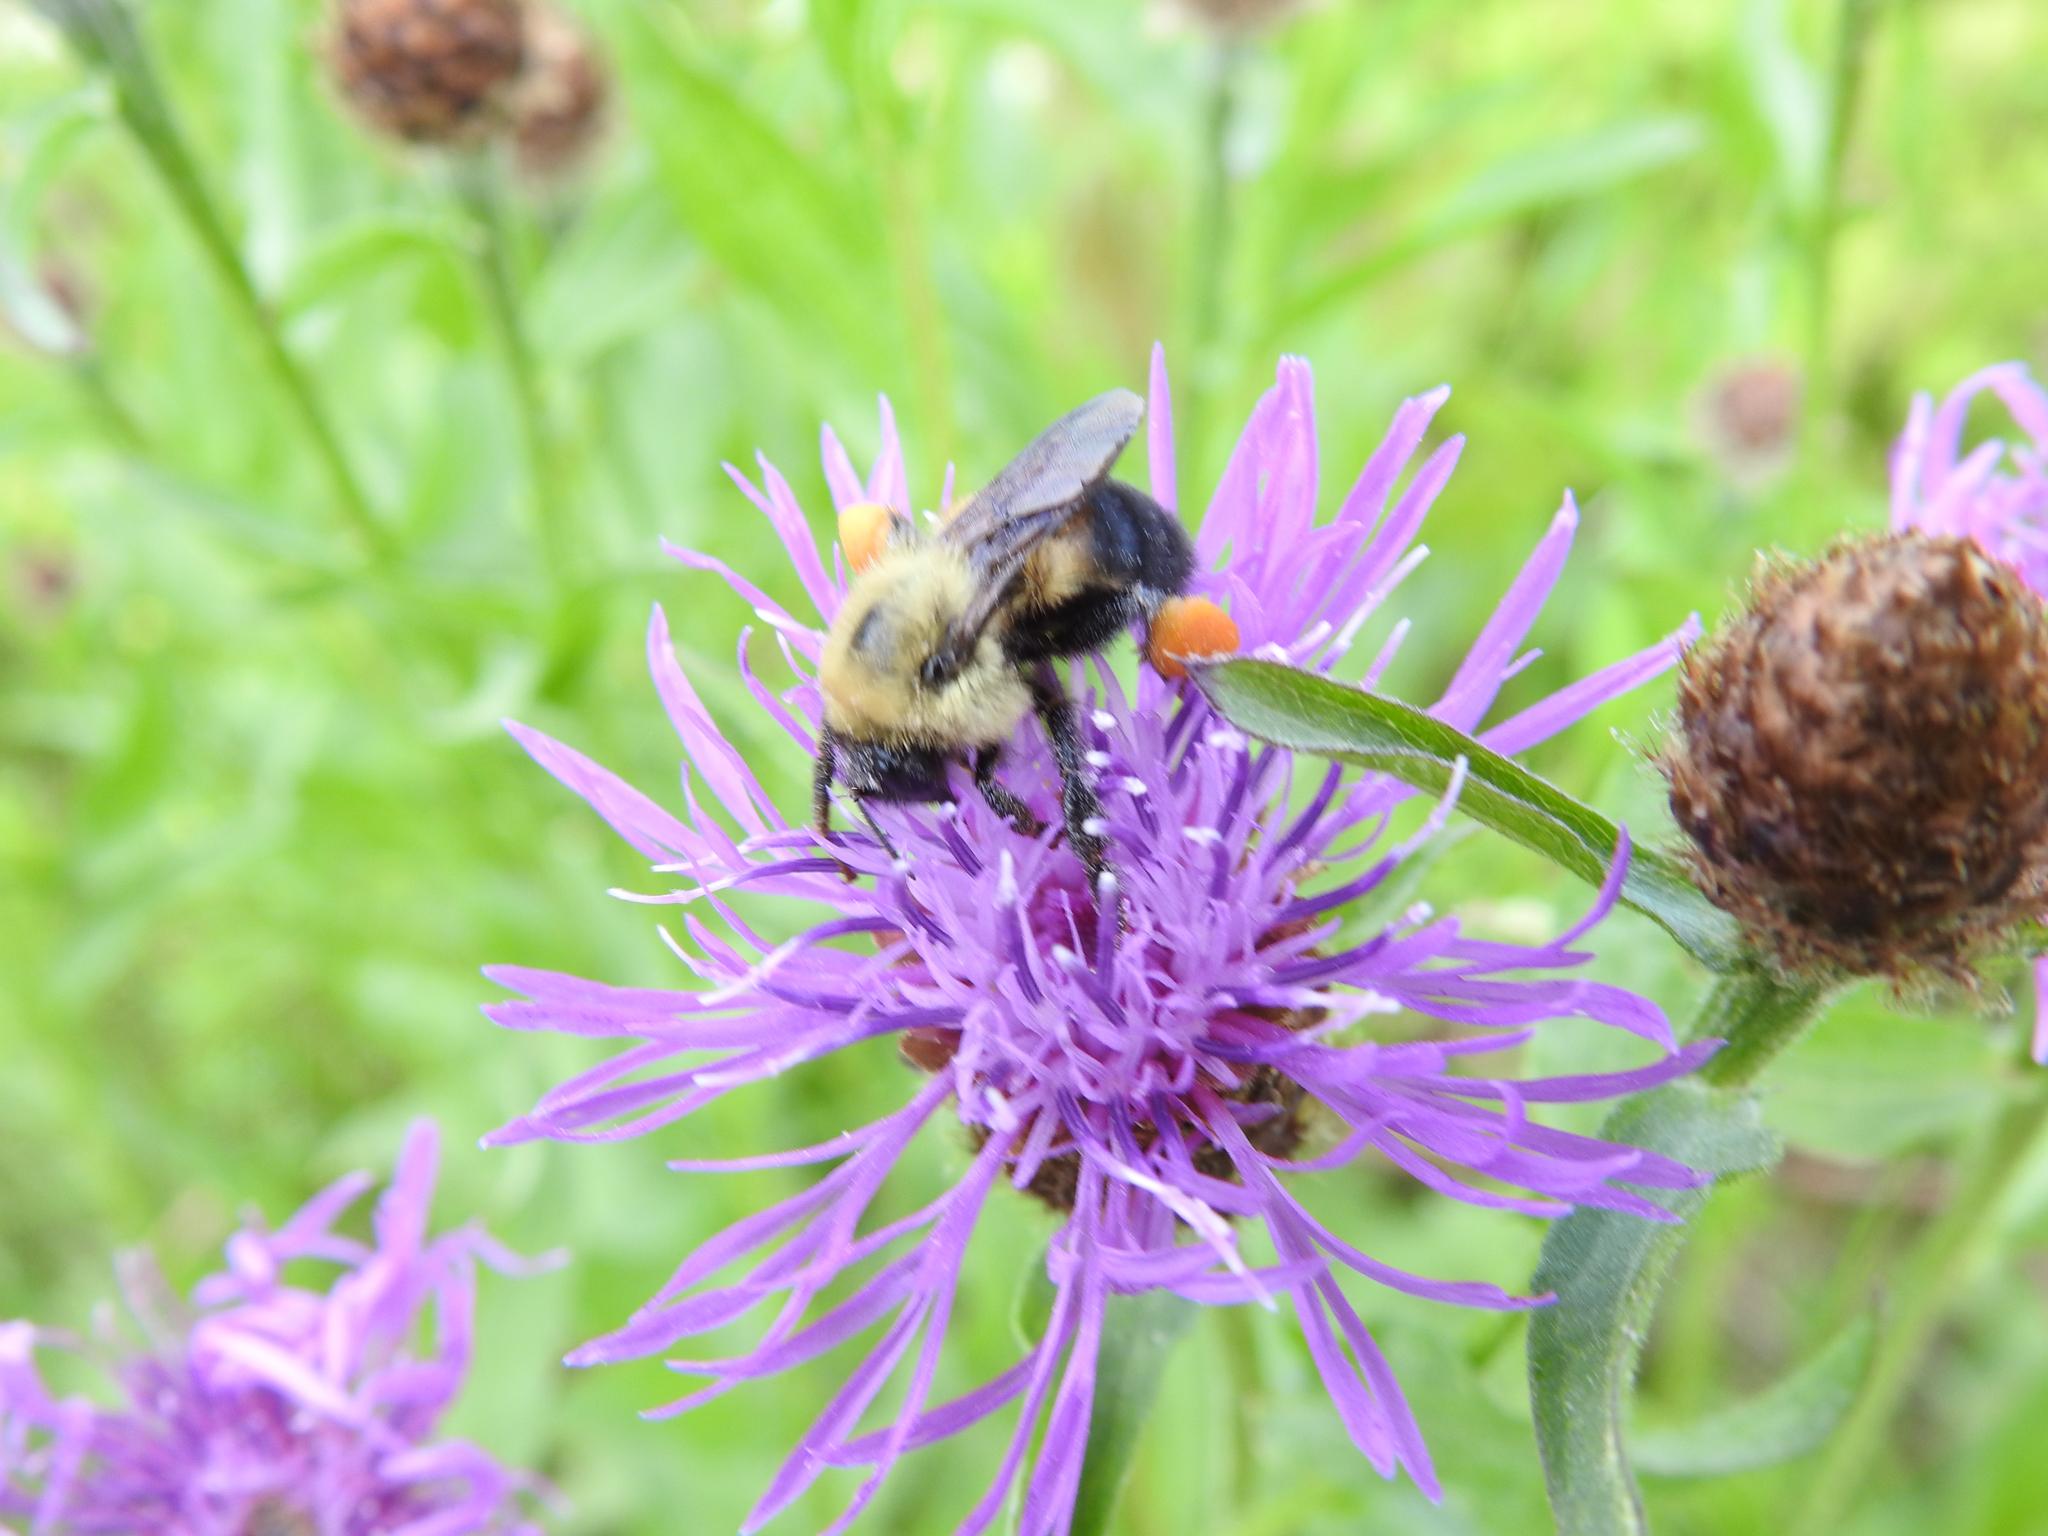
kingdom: Animalia
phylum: Arthropoda
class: Insecta
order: Hymenoptera
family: Apidae
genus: Bombus
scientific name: Bombus griseocollis
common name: Brown-belted bumble bee
